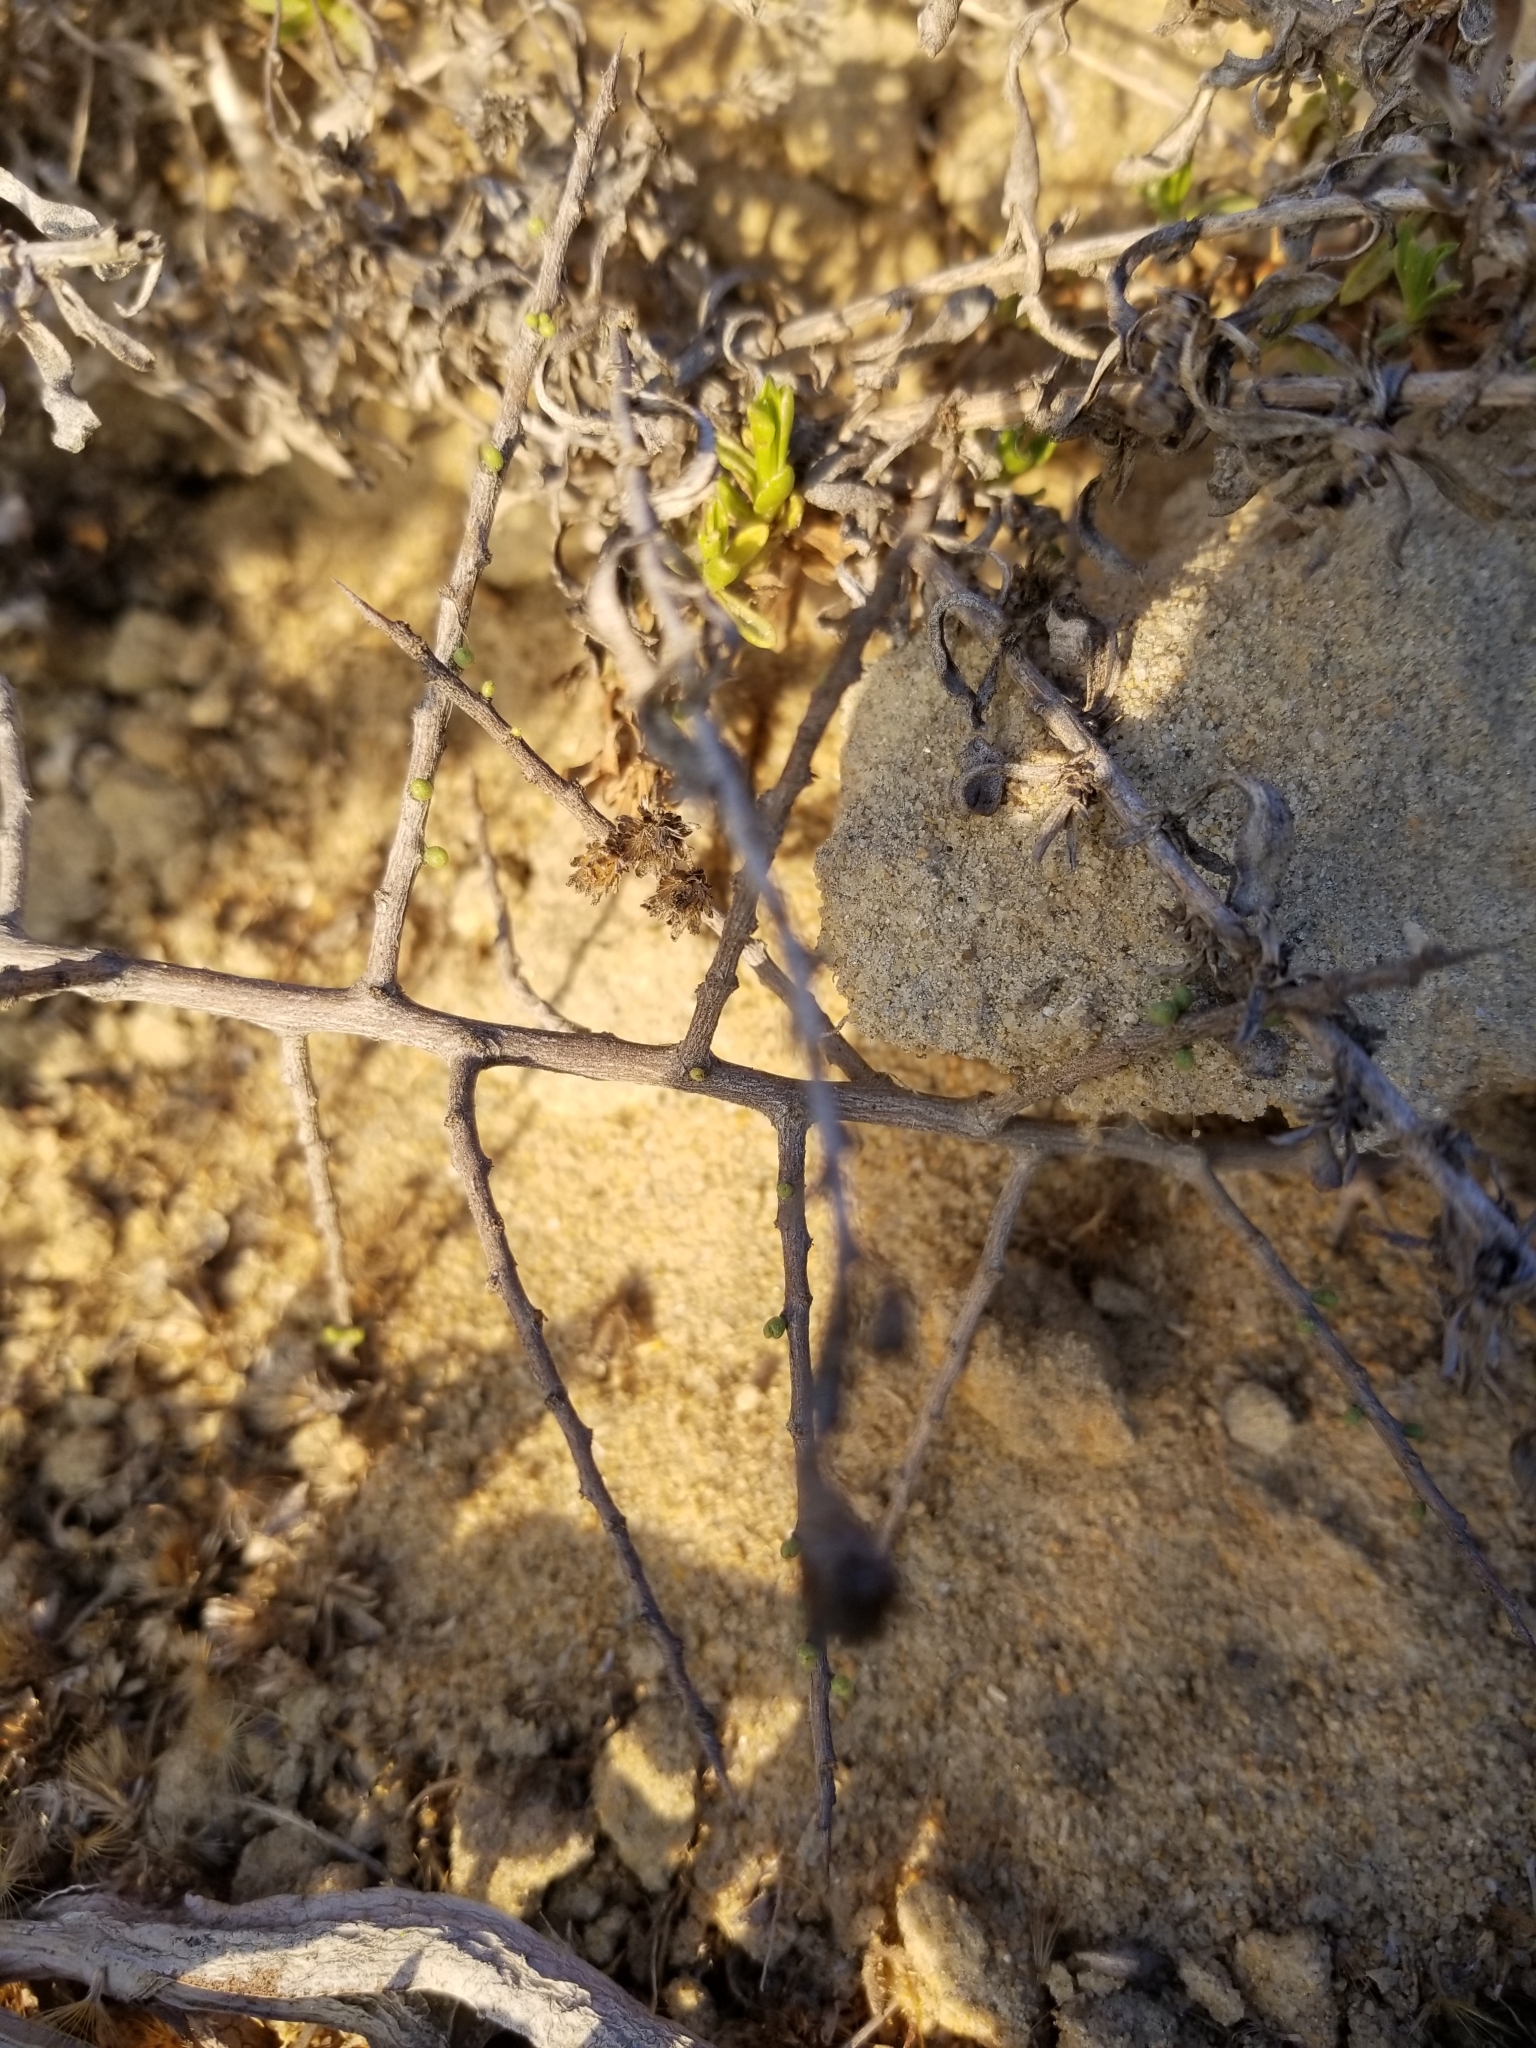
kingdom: Plantae
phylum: Tracheophyta
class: Magnoliopsida
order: Solanales
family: Solanaceae
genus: Lycium
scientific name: Lycium californicum
